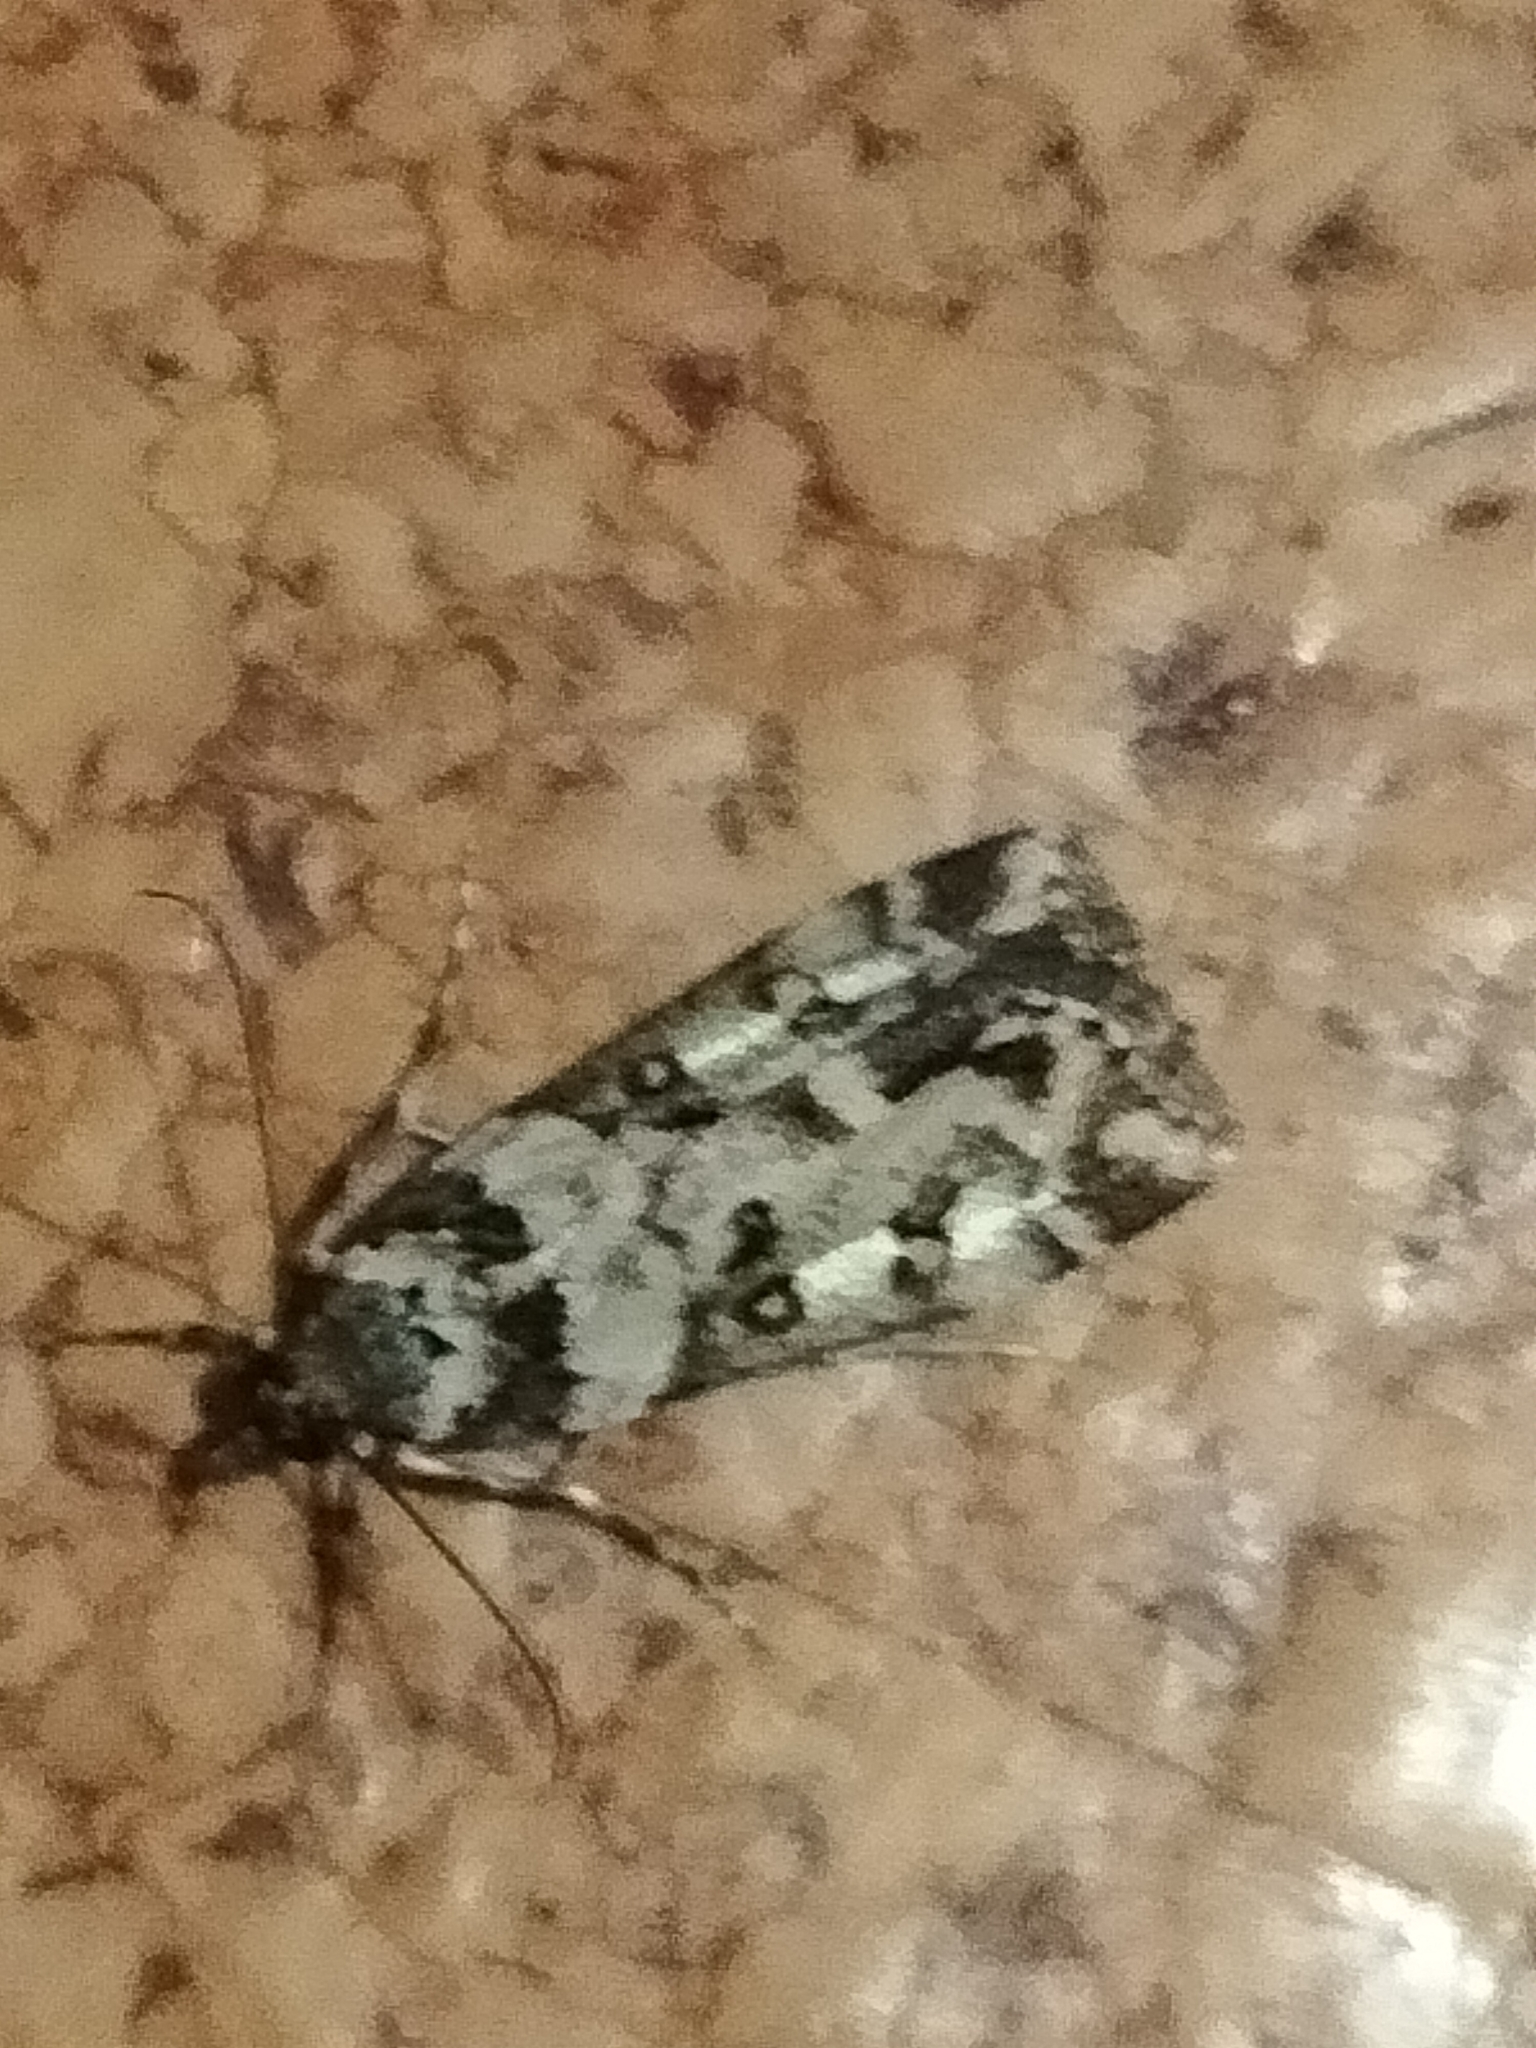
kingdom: Animalia
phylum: Arthropoda
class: Insecta
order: Lepidoptera
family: Crambidae
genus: Eudonia
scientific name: Eudonia diphtheralis
